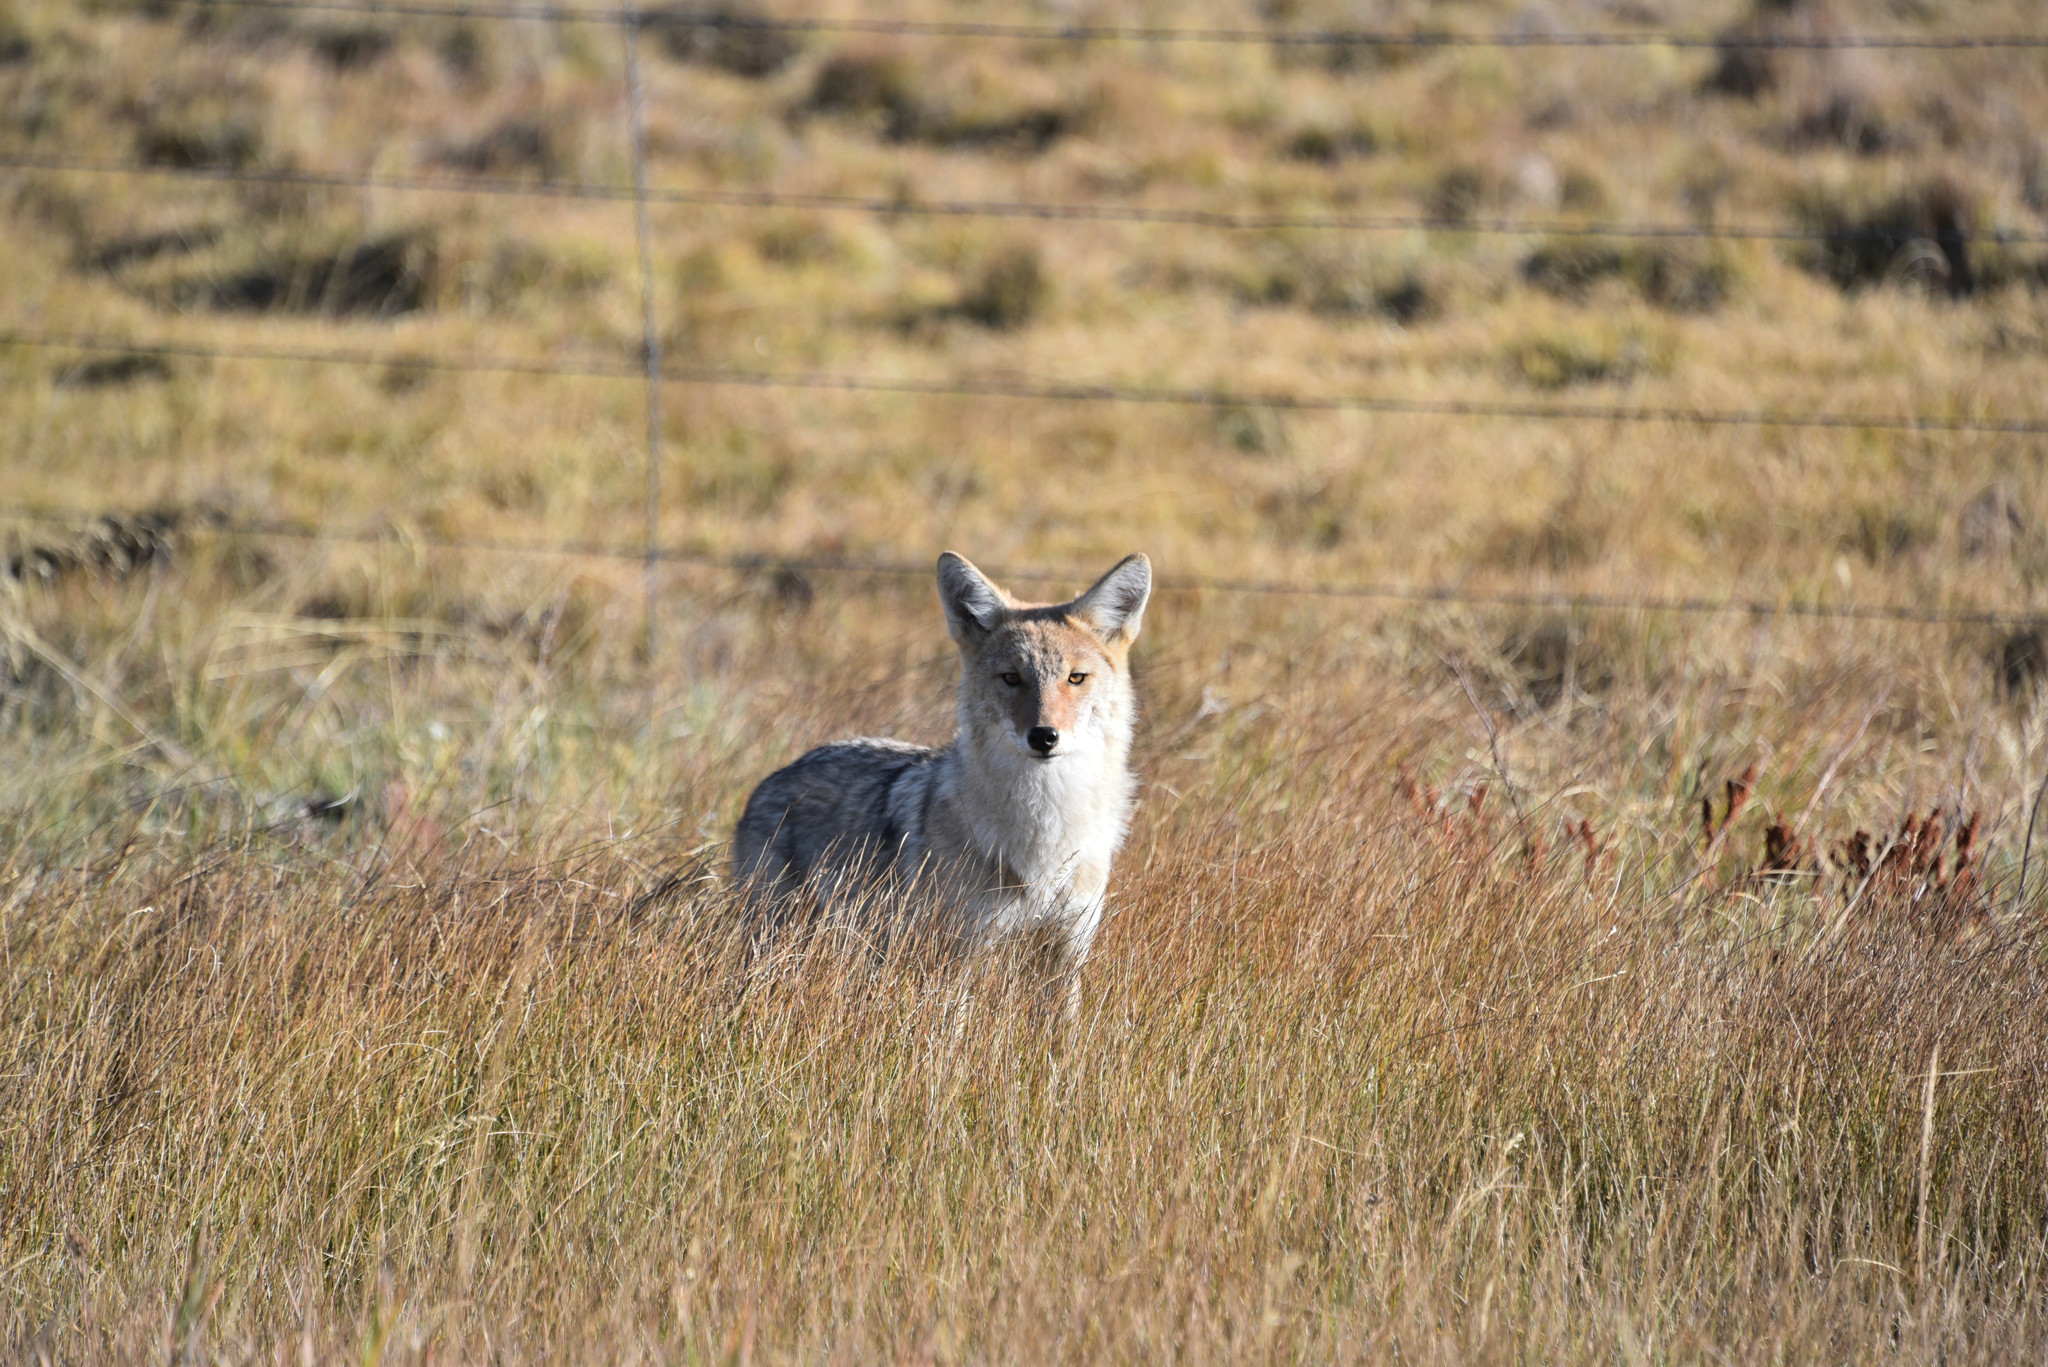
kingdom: Animalia
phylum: Chordata
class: Mammalia
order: Carnivora
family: Canidae
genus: Canis
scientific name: Canis latrans
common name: Coyote
